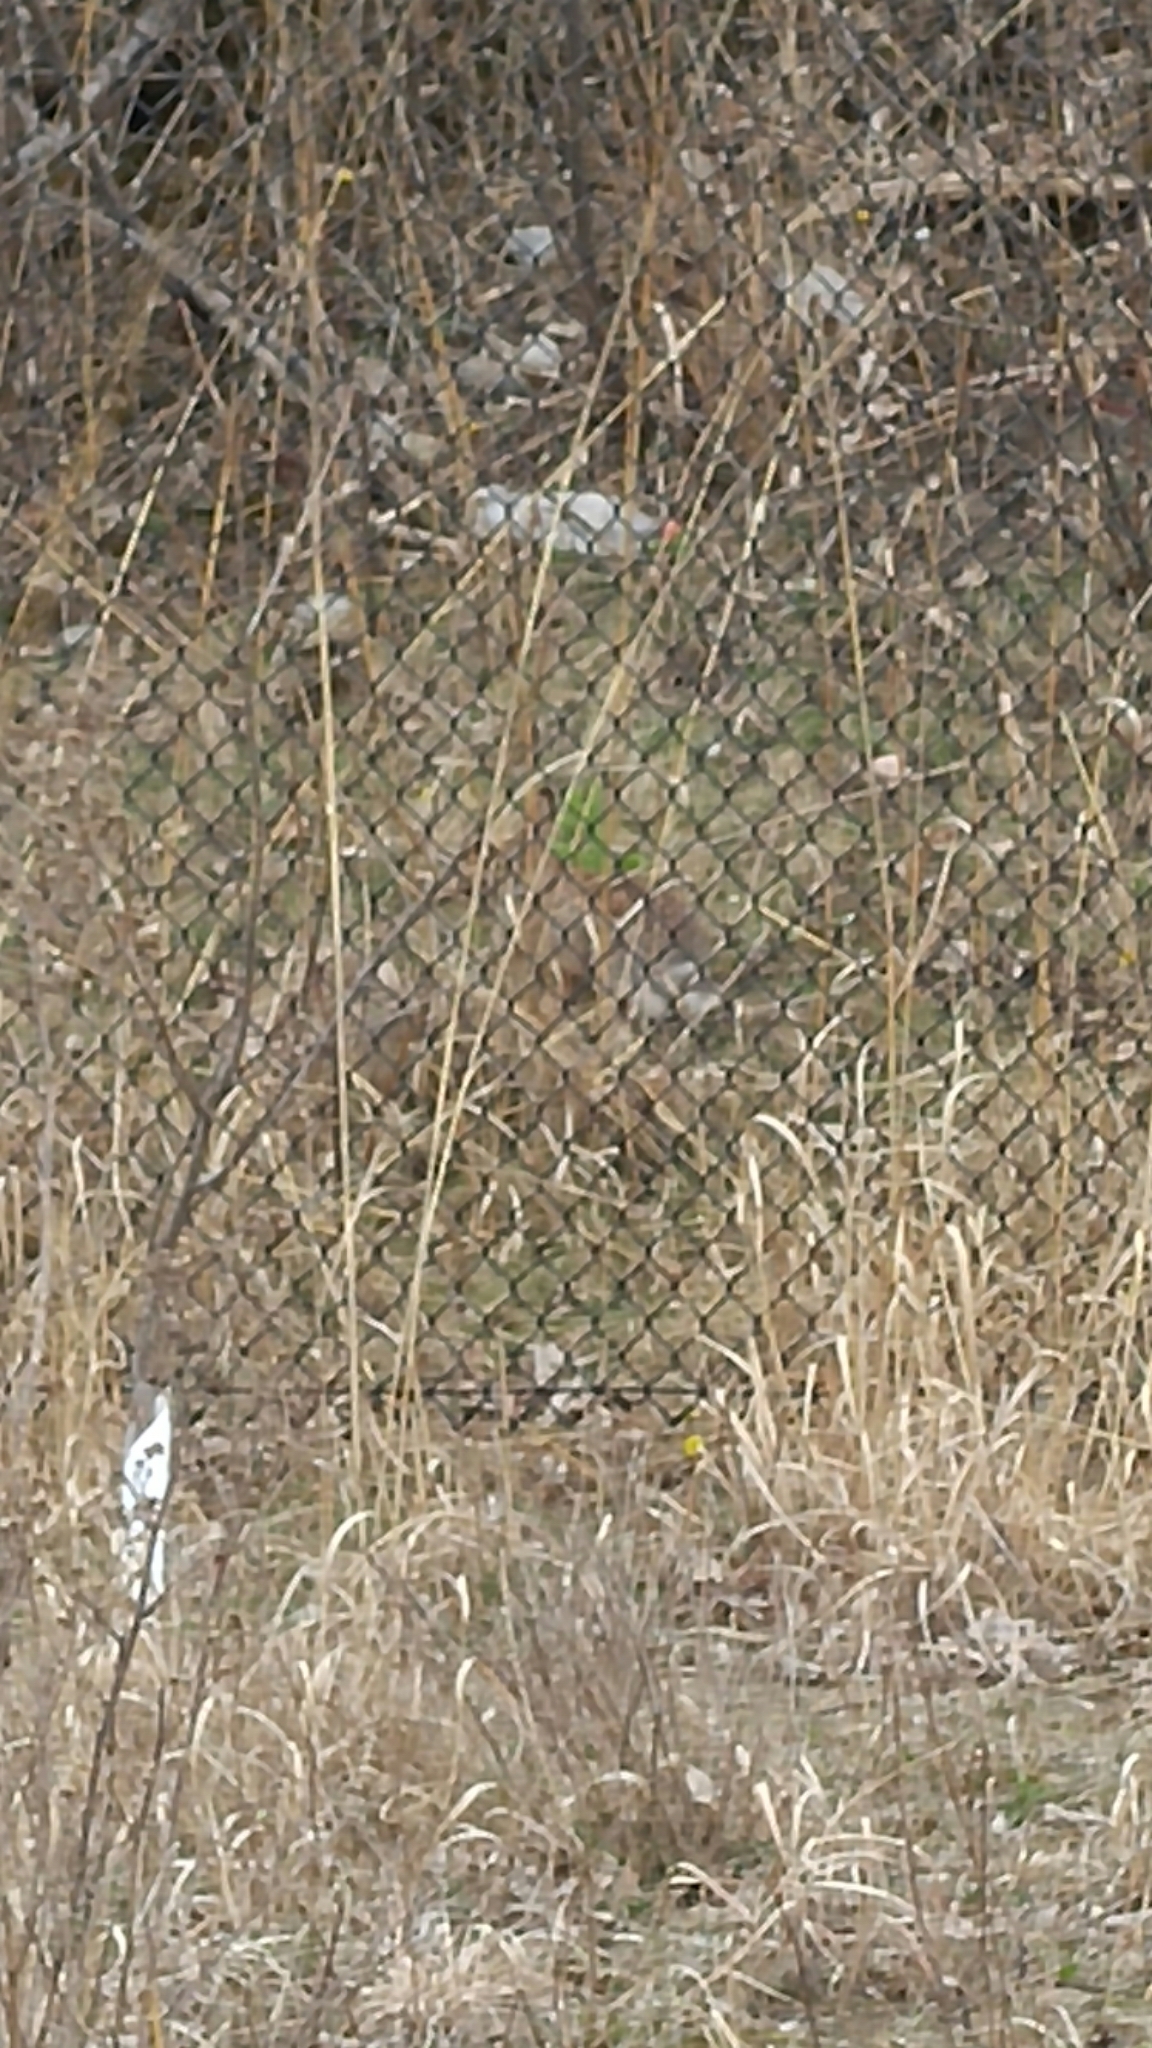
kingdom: Animalia
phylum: Chordata
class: Mammalia
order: Lagomorpha
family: Leporidae
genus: Sylvilagus
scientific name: Sylvilagus floridanus
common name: Eastern cottontail
